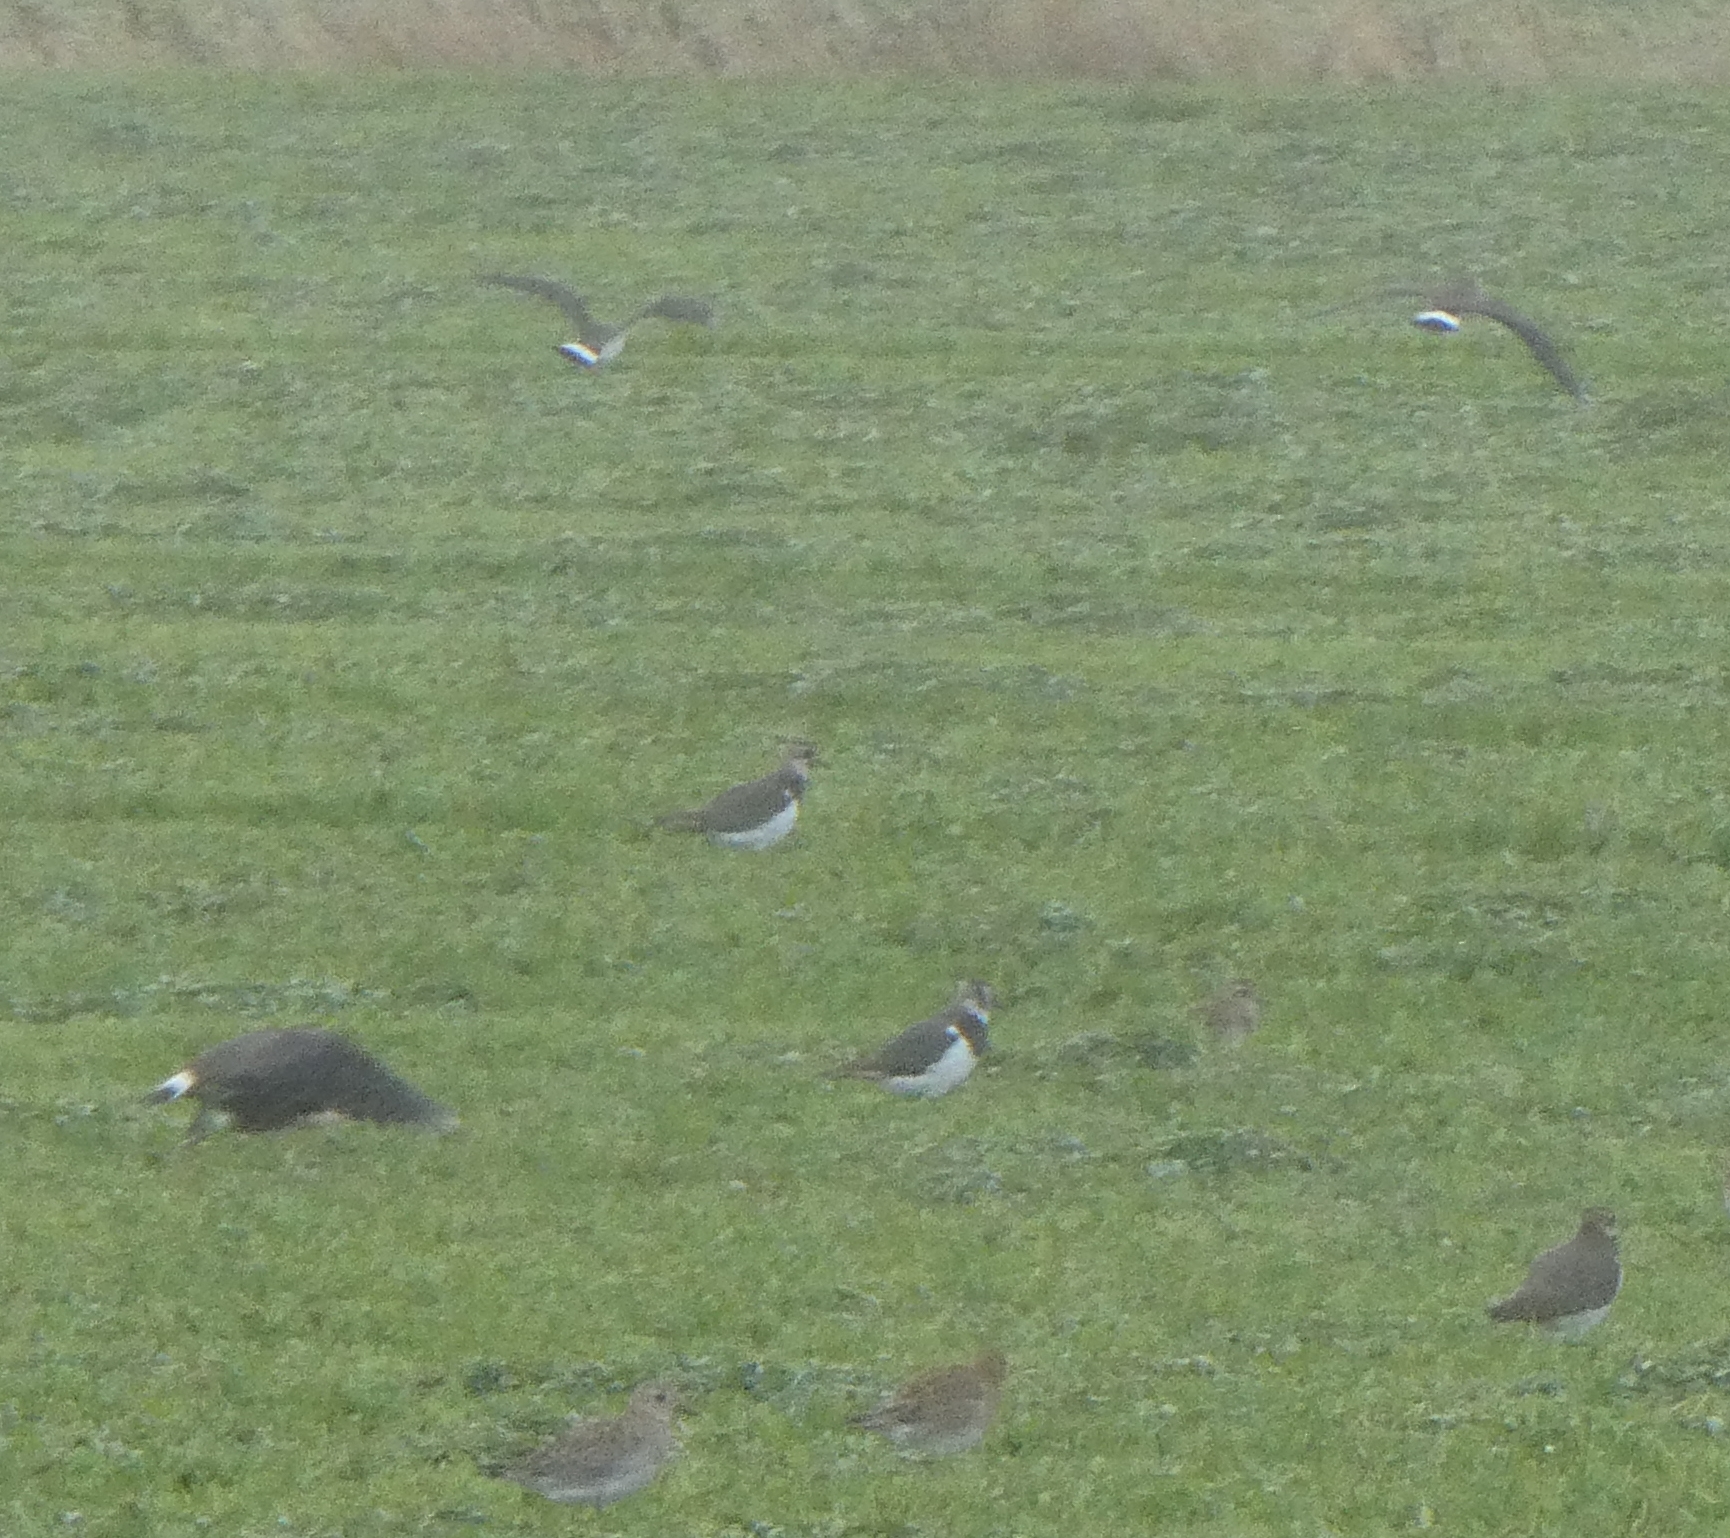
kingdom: Animalia
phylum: Chordata
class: Aves
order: Charadriiformes
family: Charadriidae
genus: Vanellus
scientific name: Vanellus vanellus
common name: Northern lapwing
